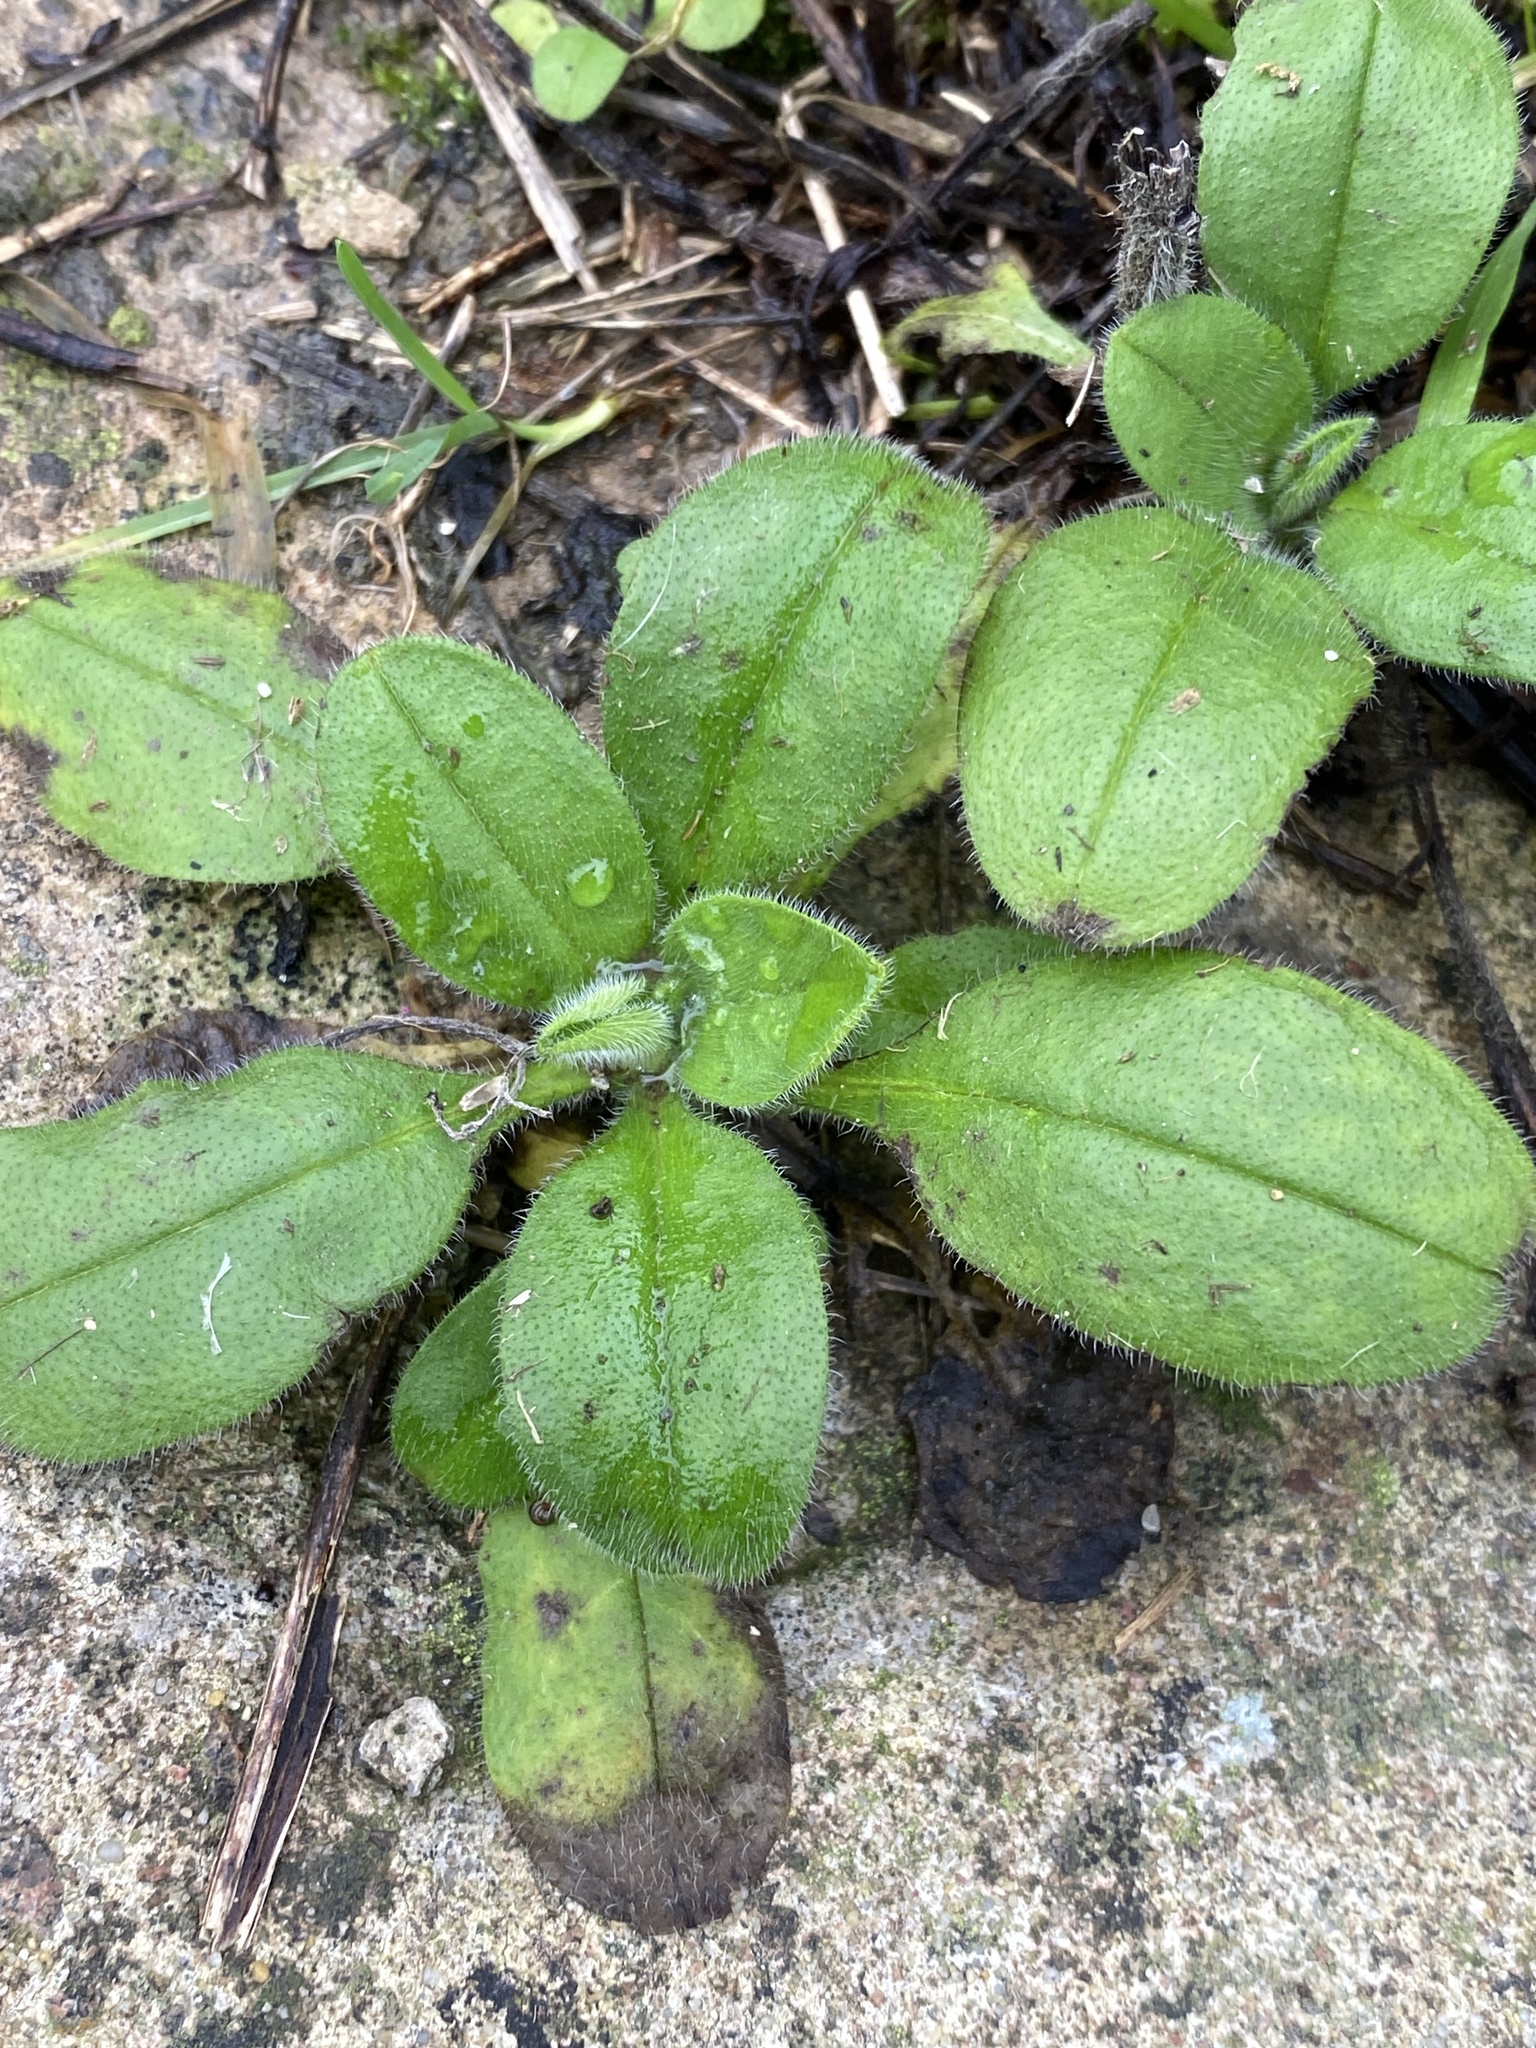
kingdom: Plantae
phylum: Tracheophyta
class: Magnoliopsida
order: Caryophyllales
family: Caryophyllaceae
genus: Cerastium
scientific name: Cerastium glomeratum
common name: Sticky chickweed
